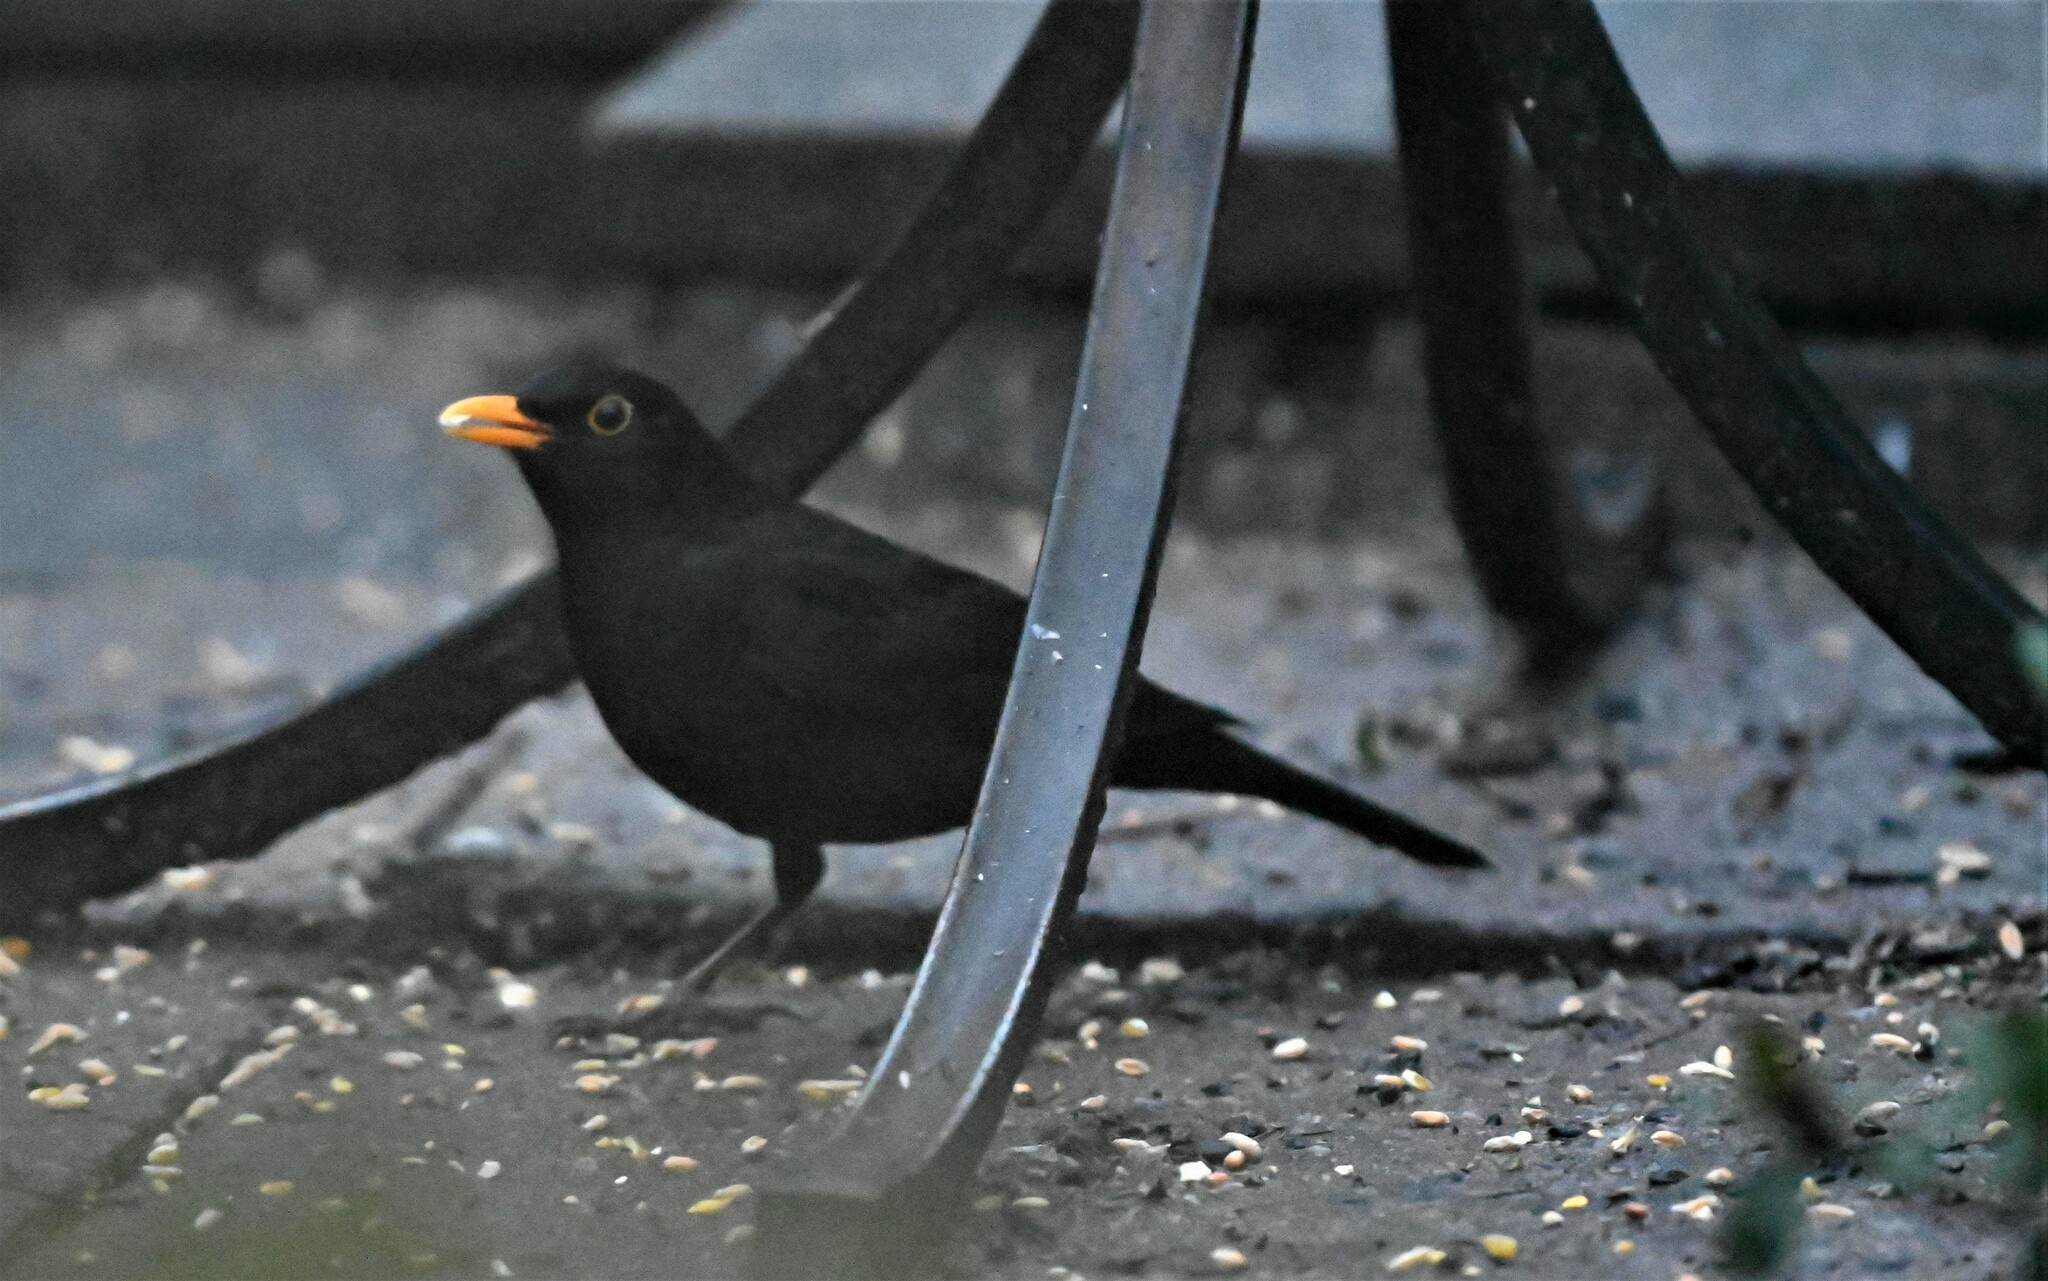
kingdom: Animalia
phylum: Chordata
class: Aves
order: Passeriformes
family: Turdidae
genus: Turdus
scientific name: Turdus merula
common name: Common blackbird
